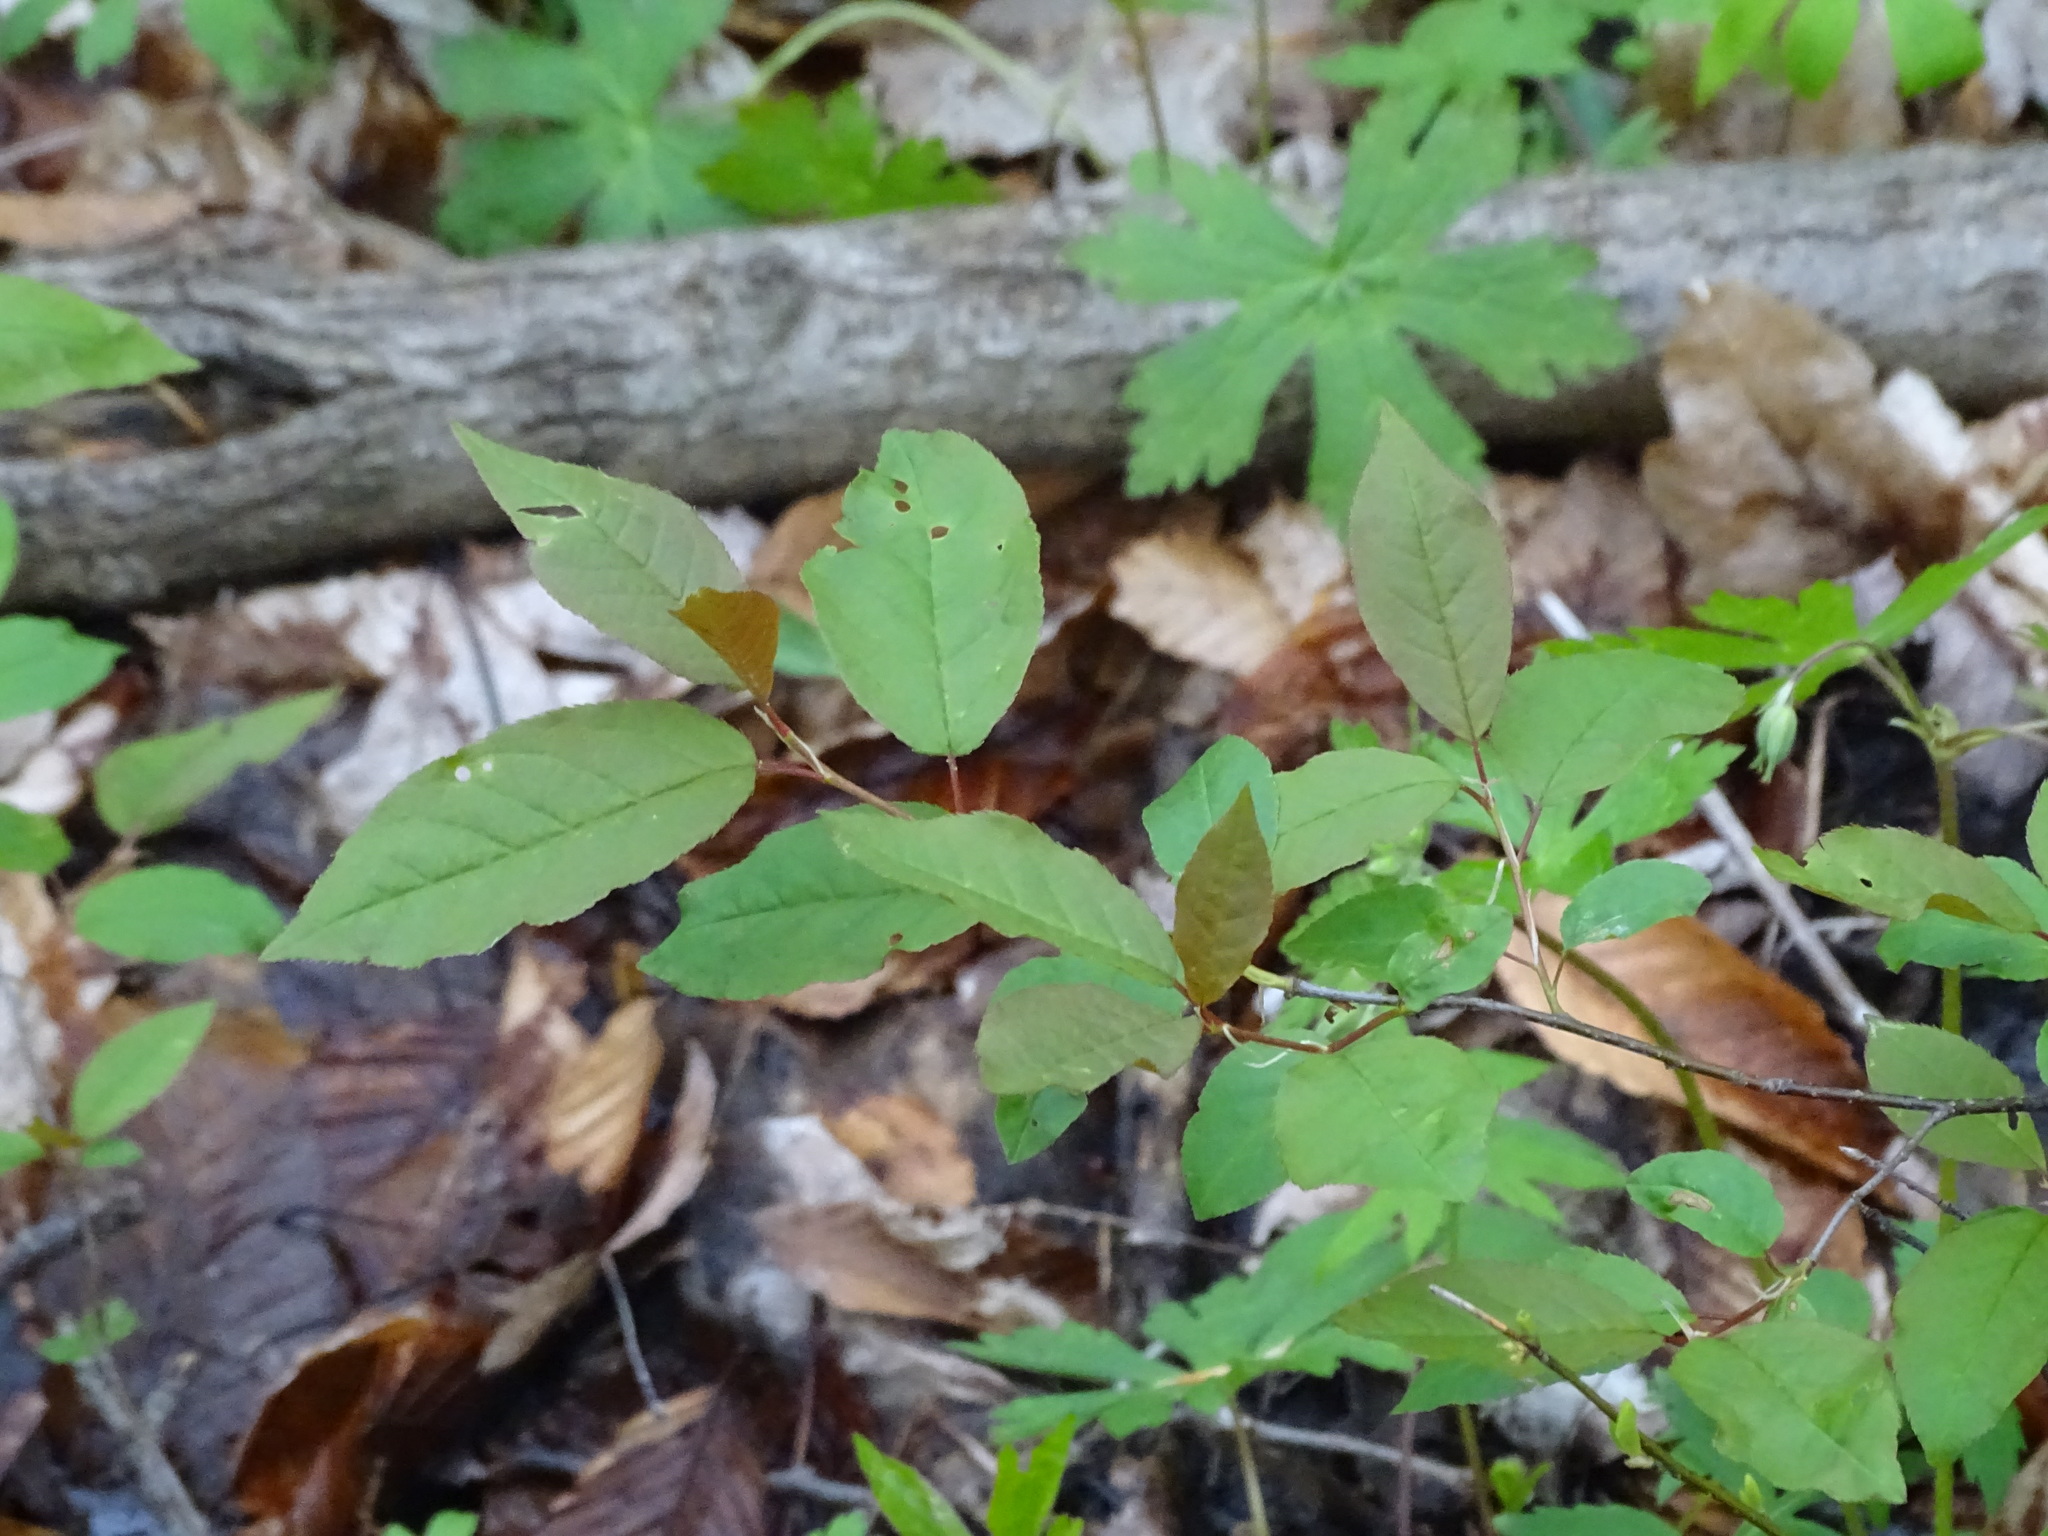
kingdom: Plantae
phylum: Tracheophyta
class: Magnoliopsida
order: Rosales
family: Rosaceae
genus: Prunus
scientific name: Prunus virginiana
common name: Chokecherry
